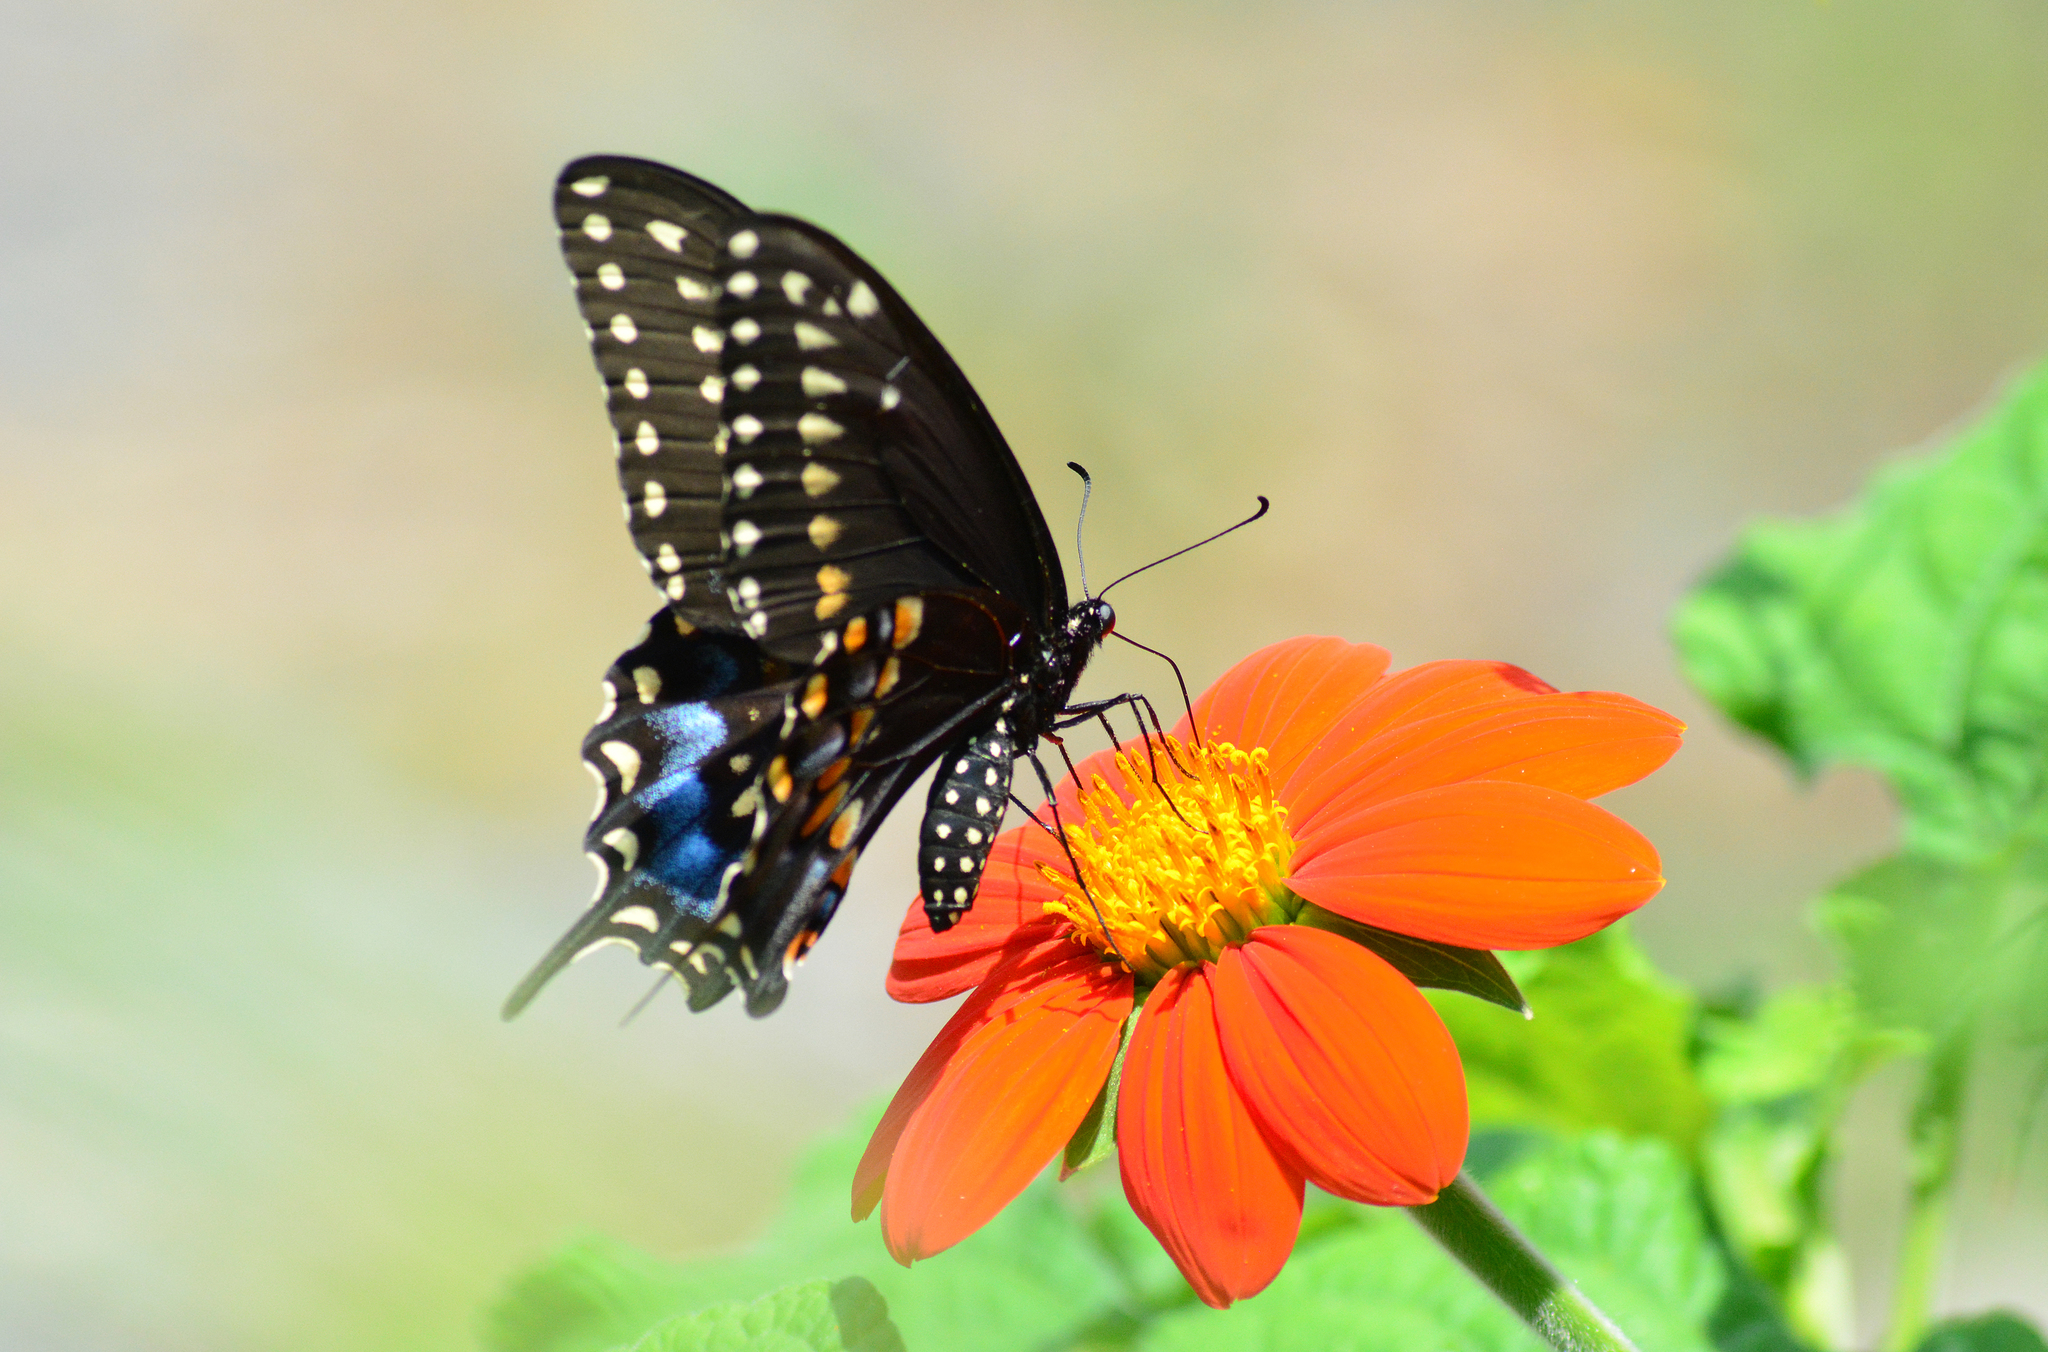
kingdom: Animalia
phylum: Arthropoda
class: Insecta
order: Lepidoptera
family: Papilionidae
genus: Papilio
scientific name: Papilio polyxenes
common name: Black swallowtail
